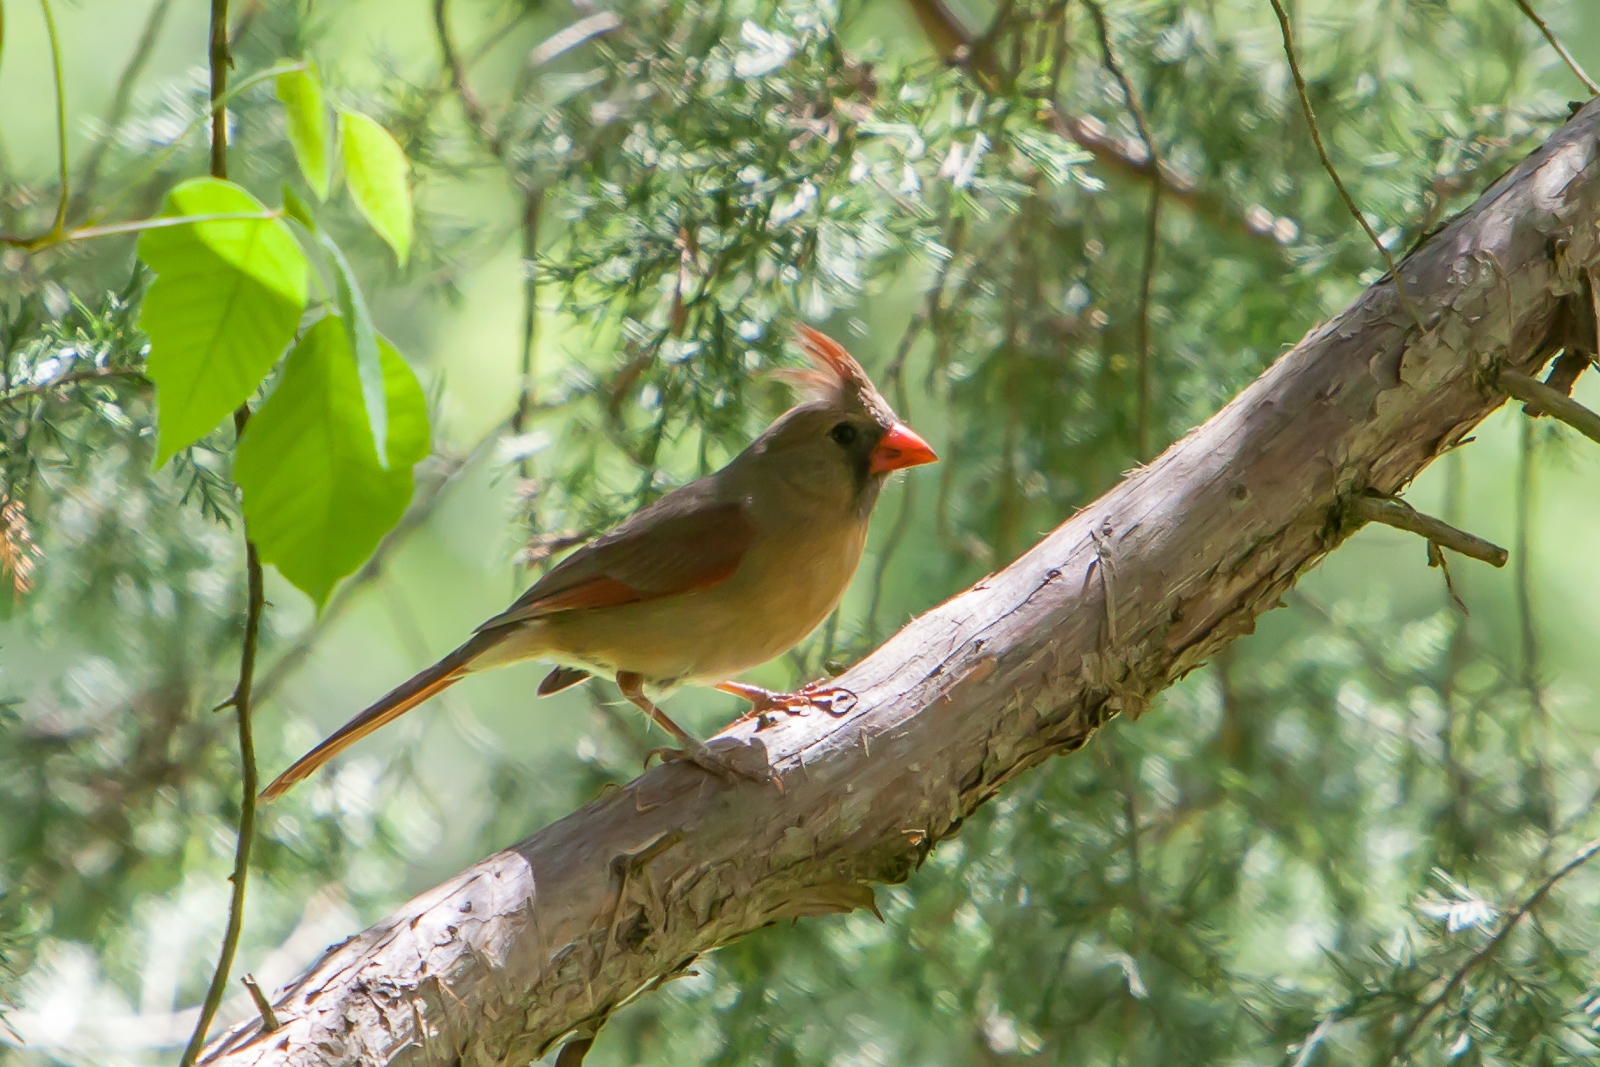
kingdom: Animalia
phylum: Chordata
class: Aves
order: Passeriformes
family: Cardinalidae
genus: Cardinalis
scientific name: Cardinalis cardinalis
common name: Northern cardinal
